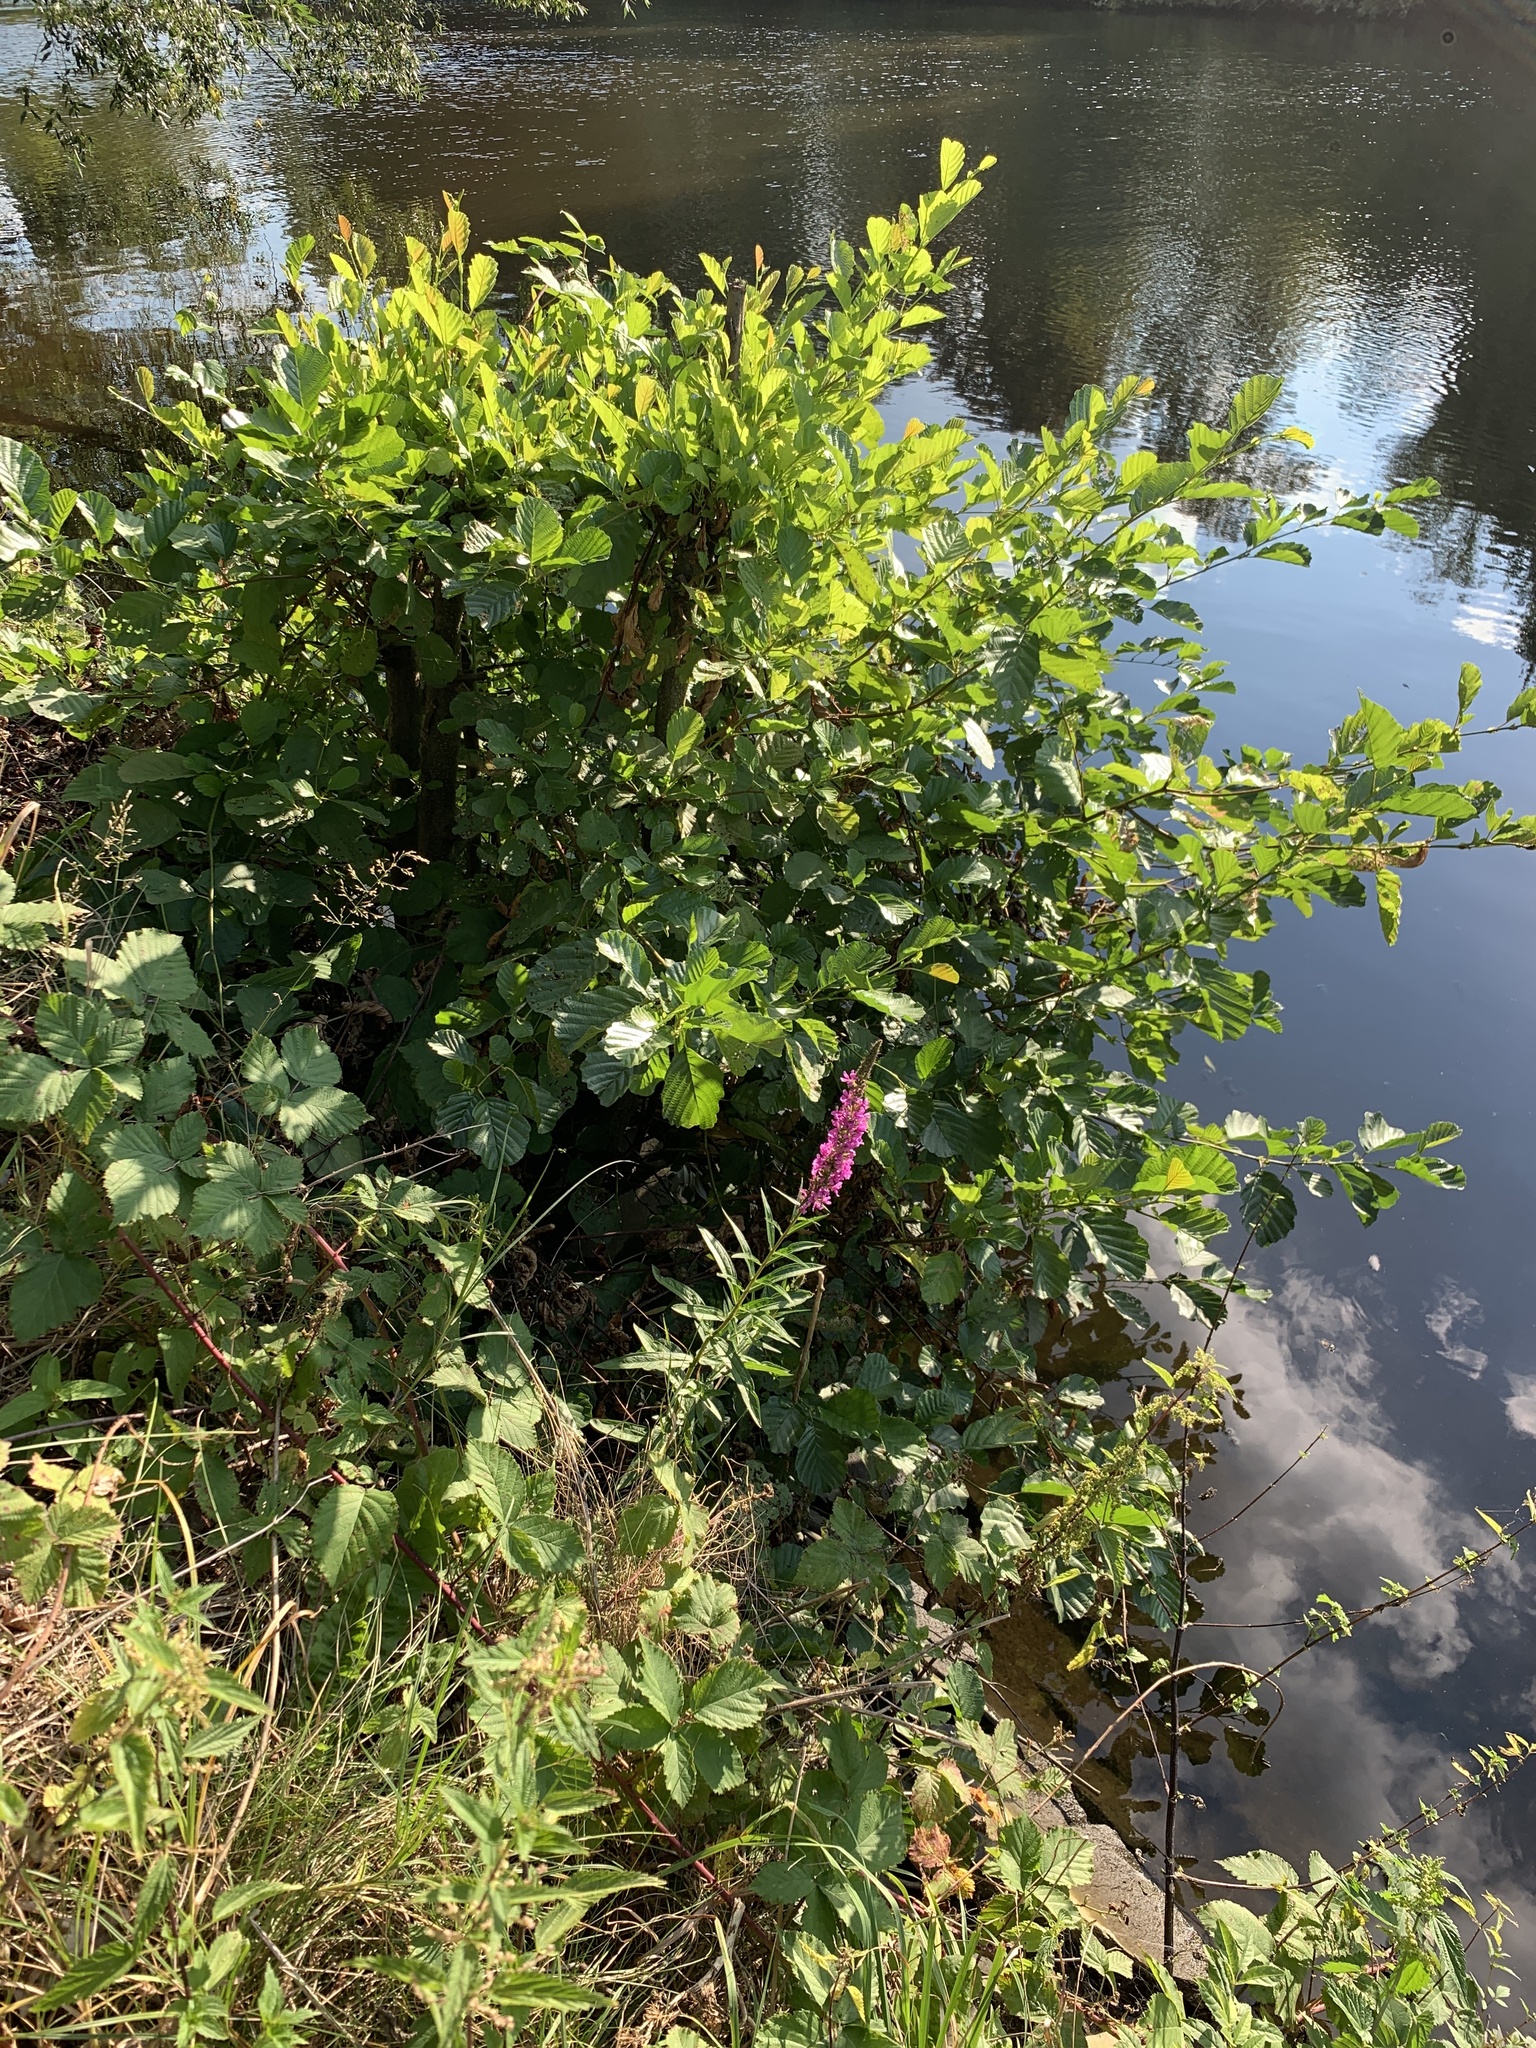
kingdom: Plantae
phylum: Tracheophyta
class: Magnoliopsida
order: Myrtales
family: Lythraceae
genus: Lythrum
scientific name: Lythrum salicaria
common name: Purple loosestrife
